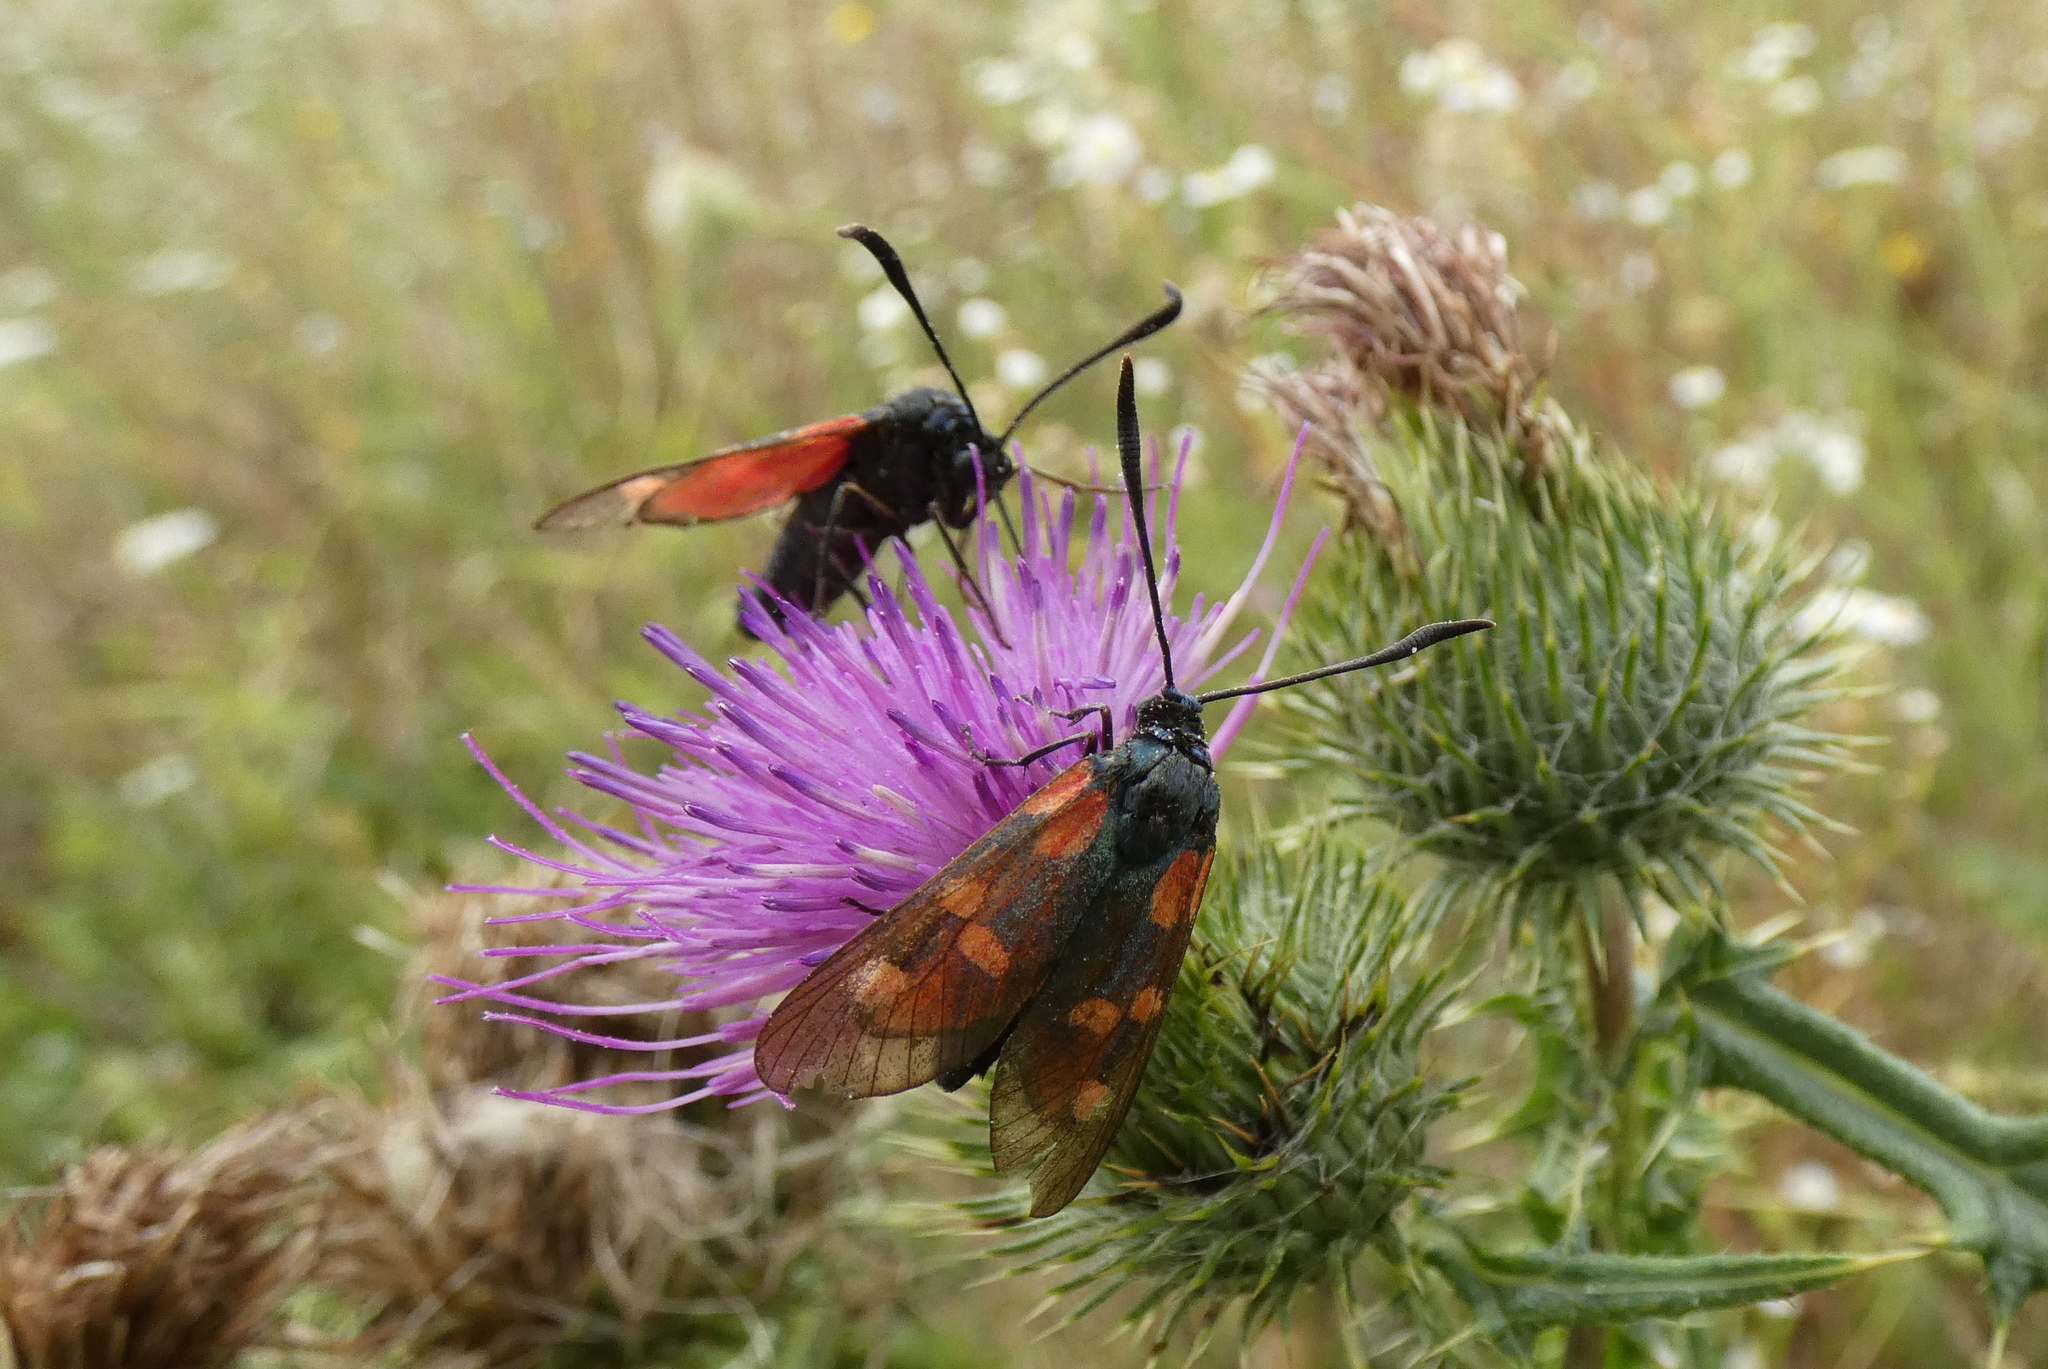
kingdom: Animalia
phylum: Arthropoda
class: Insecta
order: Lepidoptera
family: Zygaenidae
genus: Zygaena
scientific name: Zygaena filipendulae
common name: Six-spot burnet
